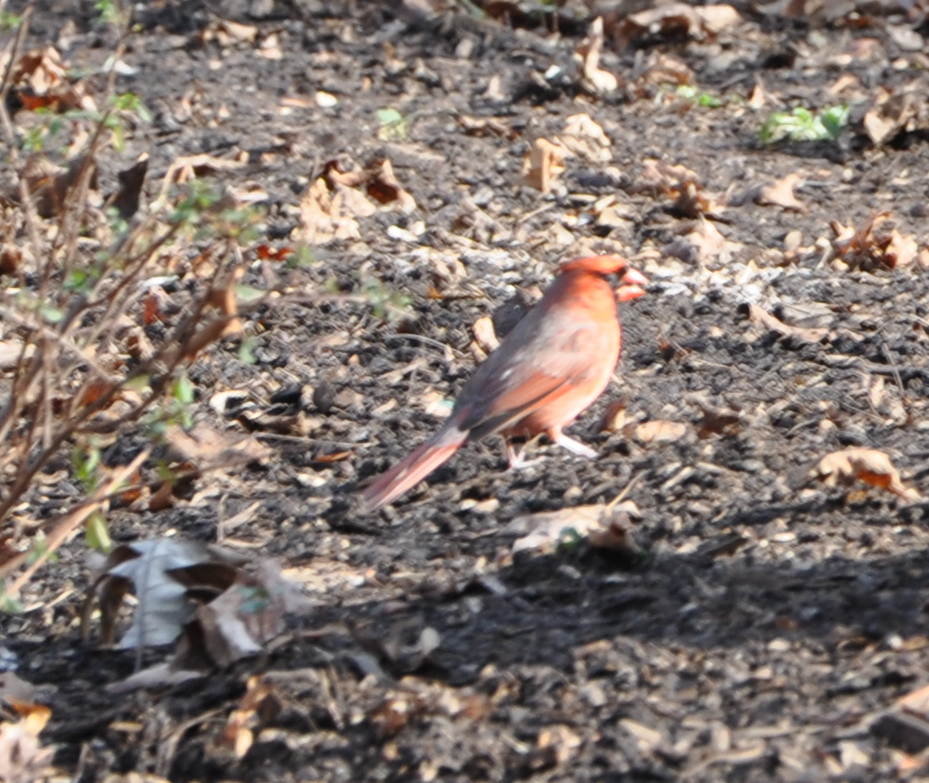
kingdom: Animalia
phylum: Chordata
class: Aves
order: Passeriformes
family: Cardinalidae
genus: Cardinalis
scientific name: Cardinalis cardinalis
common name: Northern cardinal
